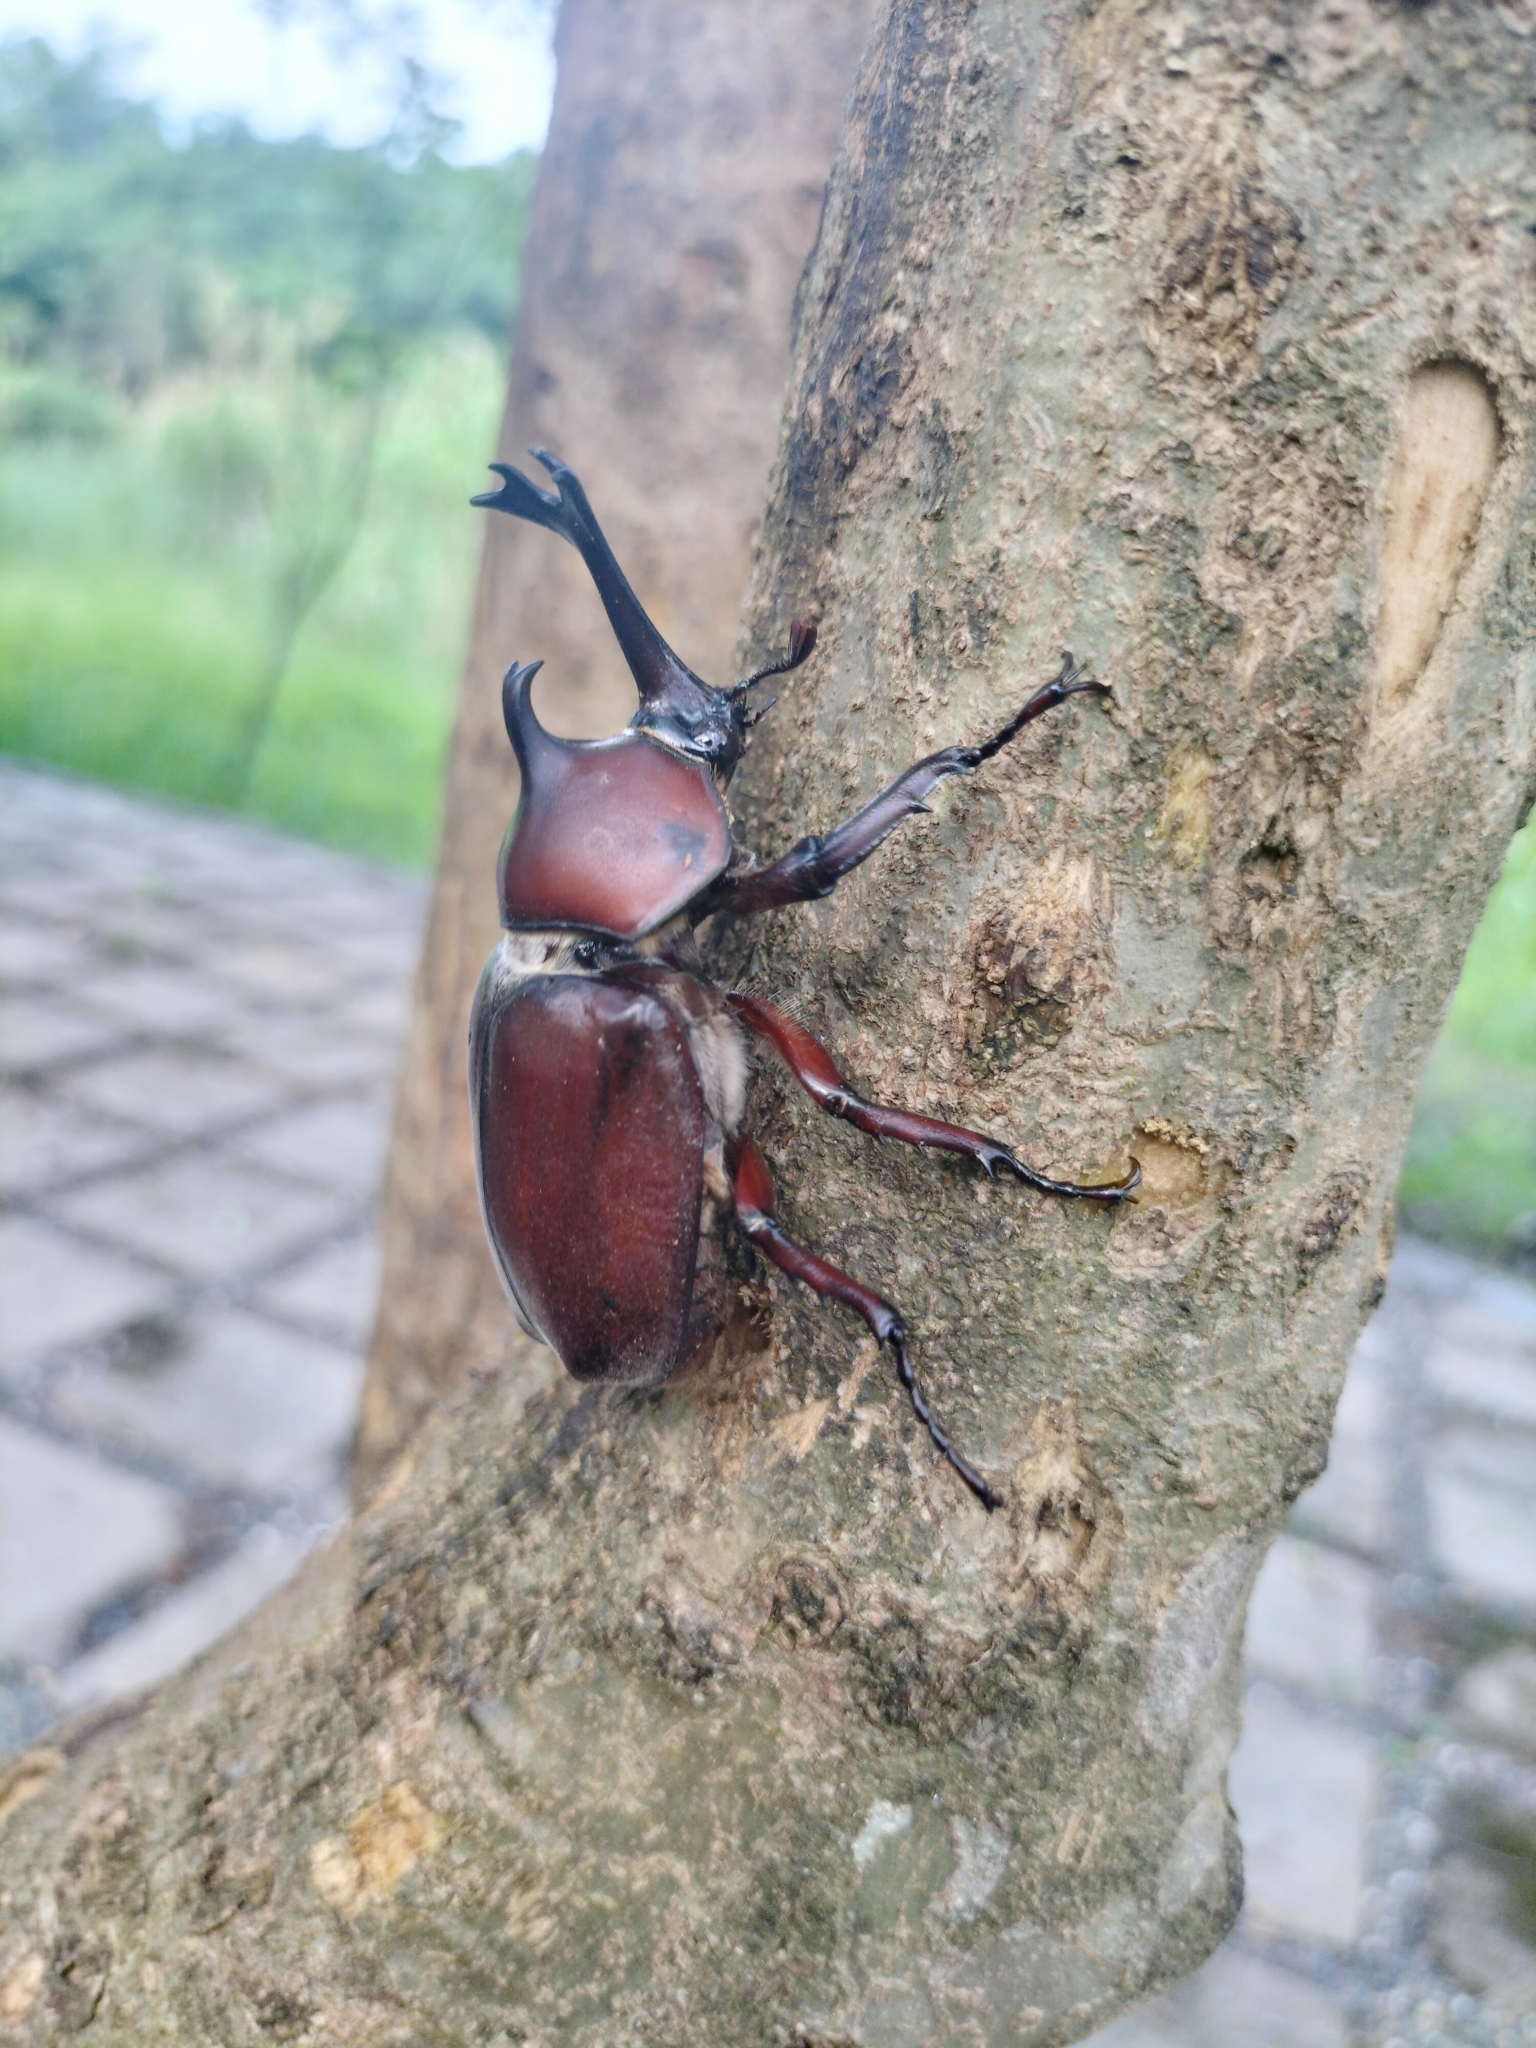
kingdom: Animalia
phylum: Arthropoda
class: Insecta
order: Coleoptera
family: Scarabaeidae
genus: Trypoxylus
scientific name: Trypoxylus dichotomus
